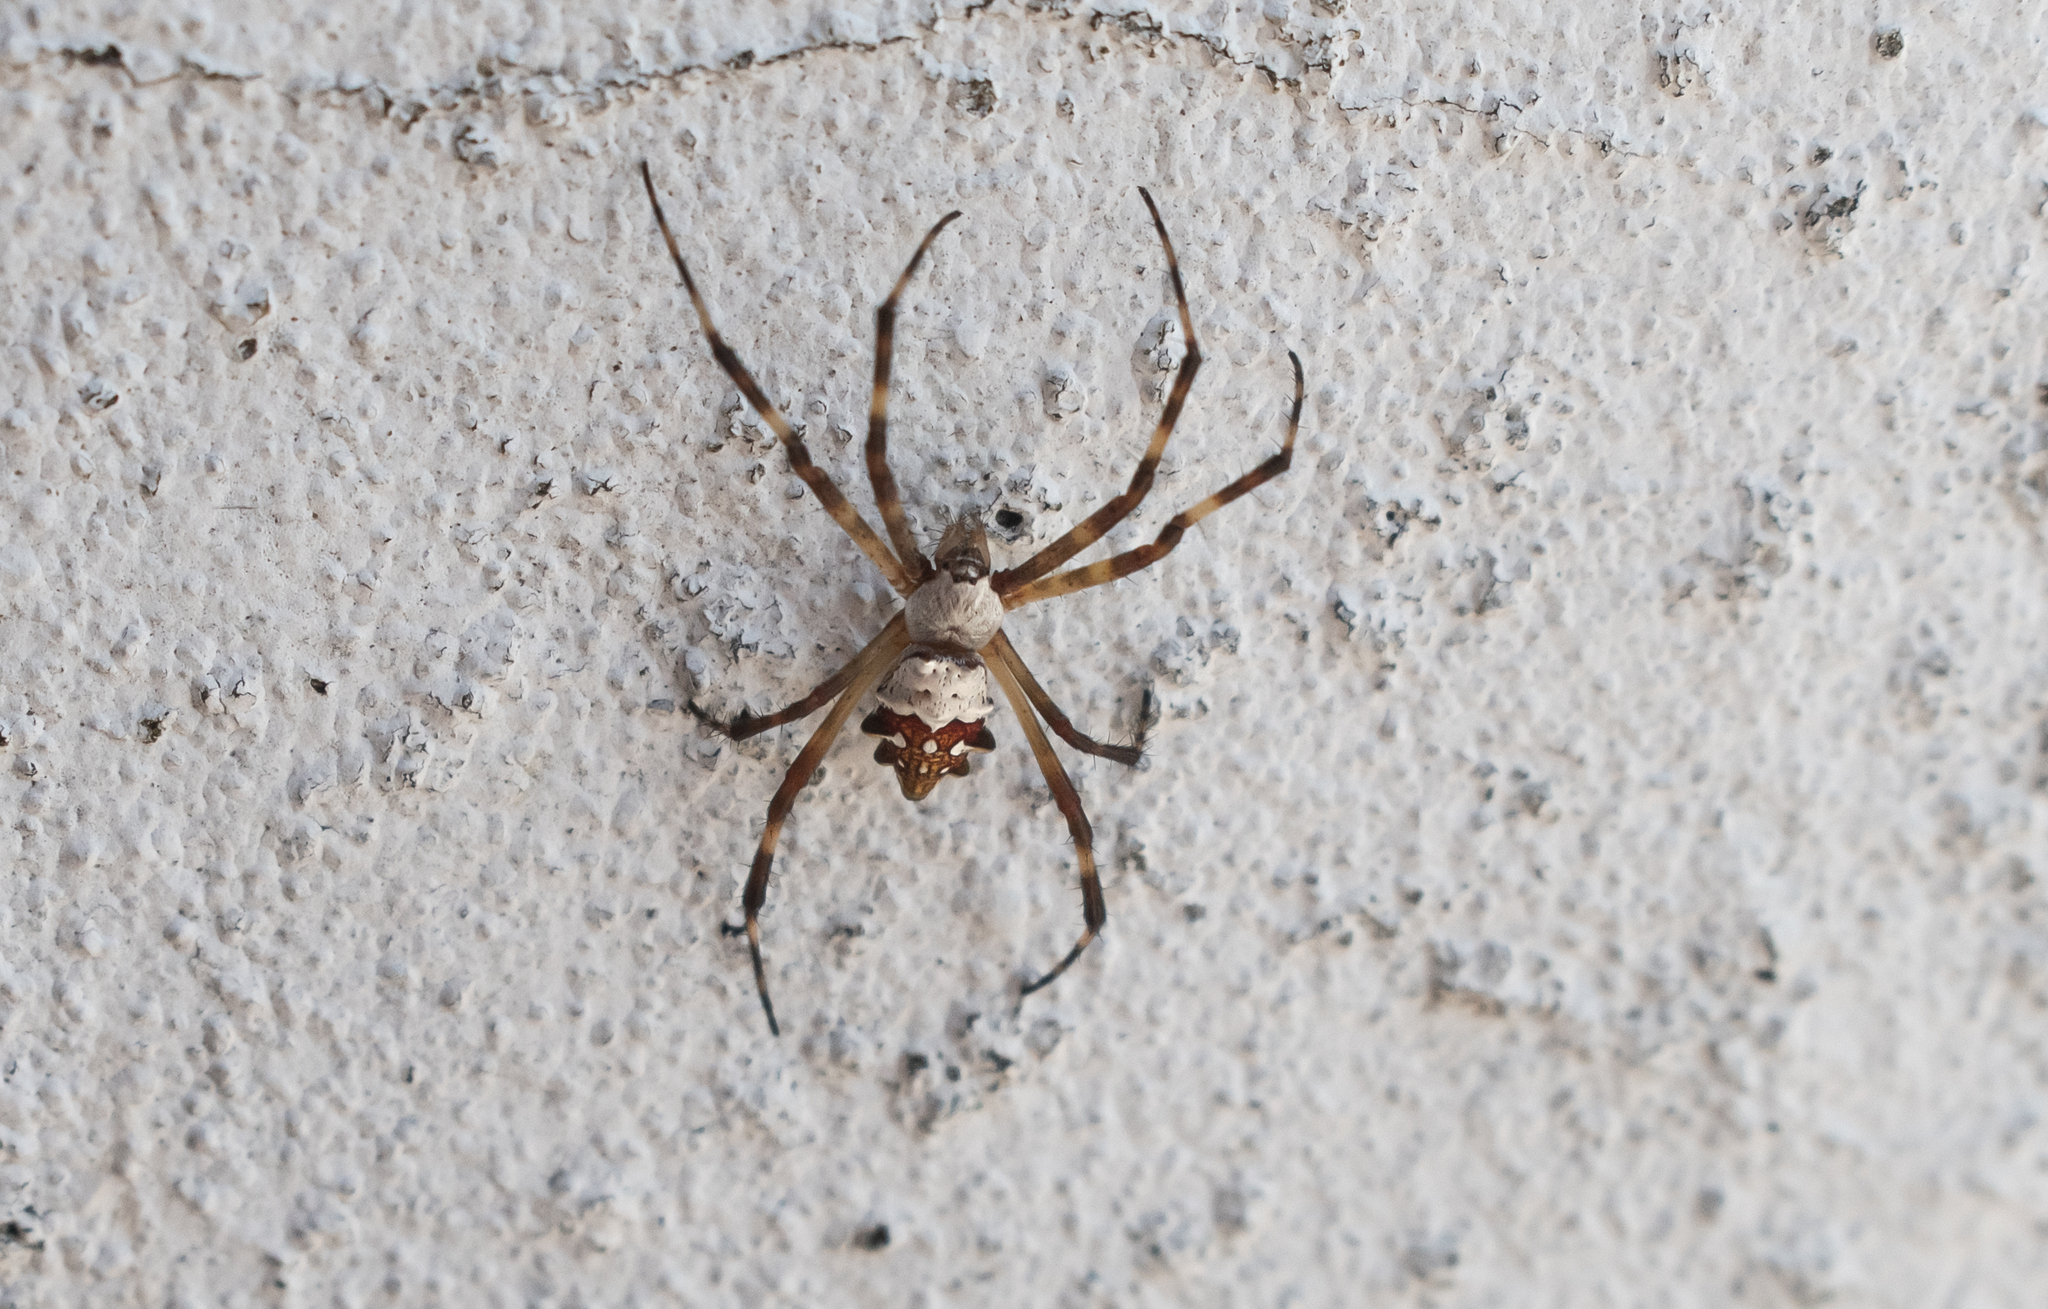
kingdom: Animalia
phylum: Arthropoda
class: Arachnida
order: Araneae
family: Araneidae
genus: Argiope
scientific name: Argiope argentata
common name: Orb weavers
